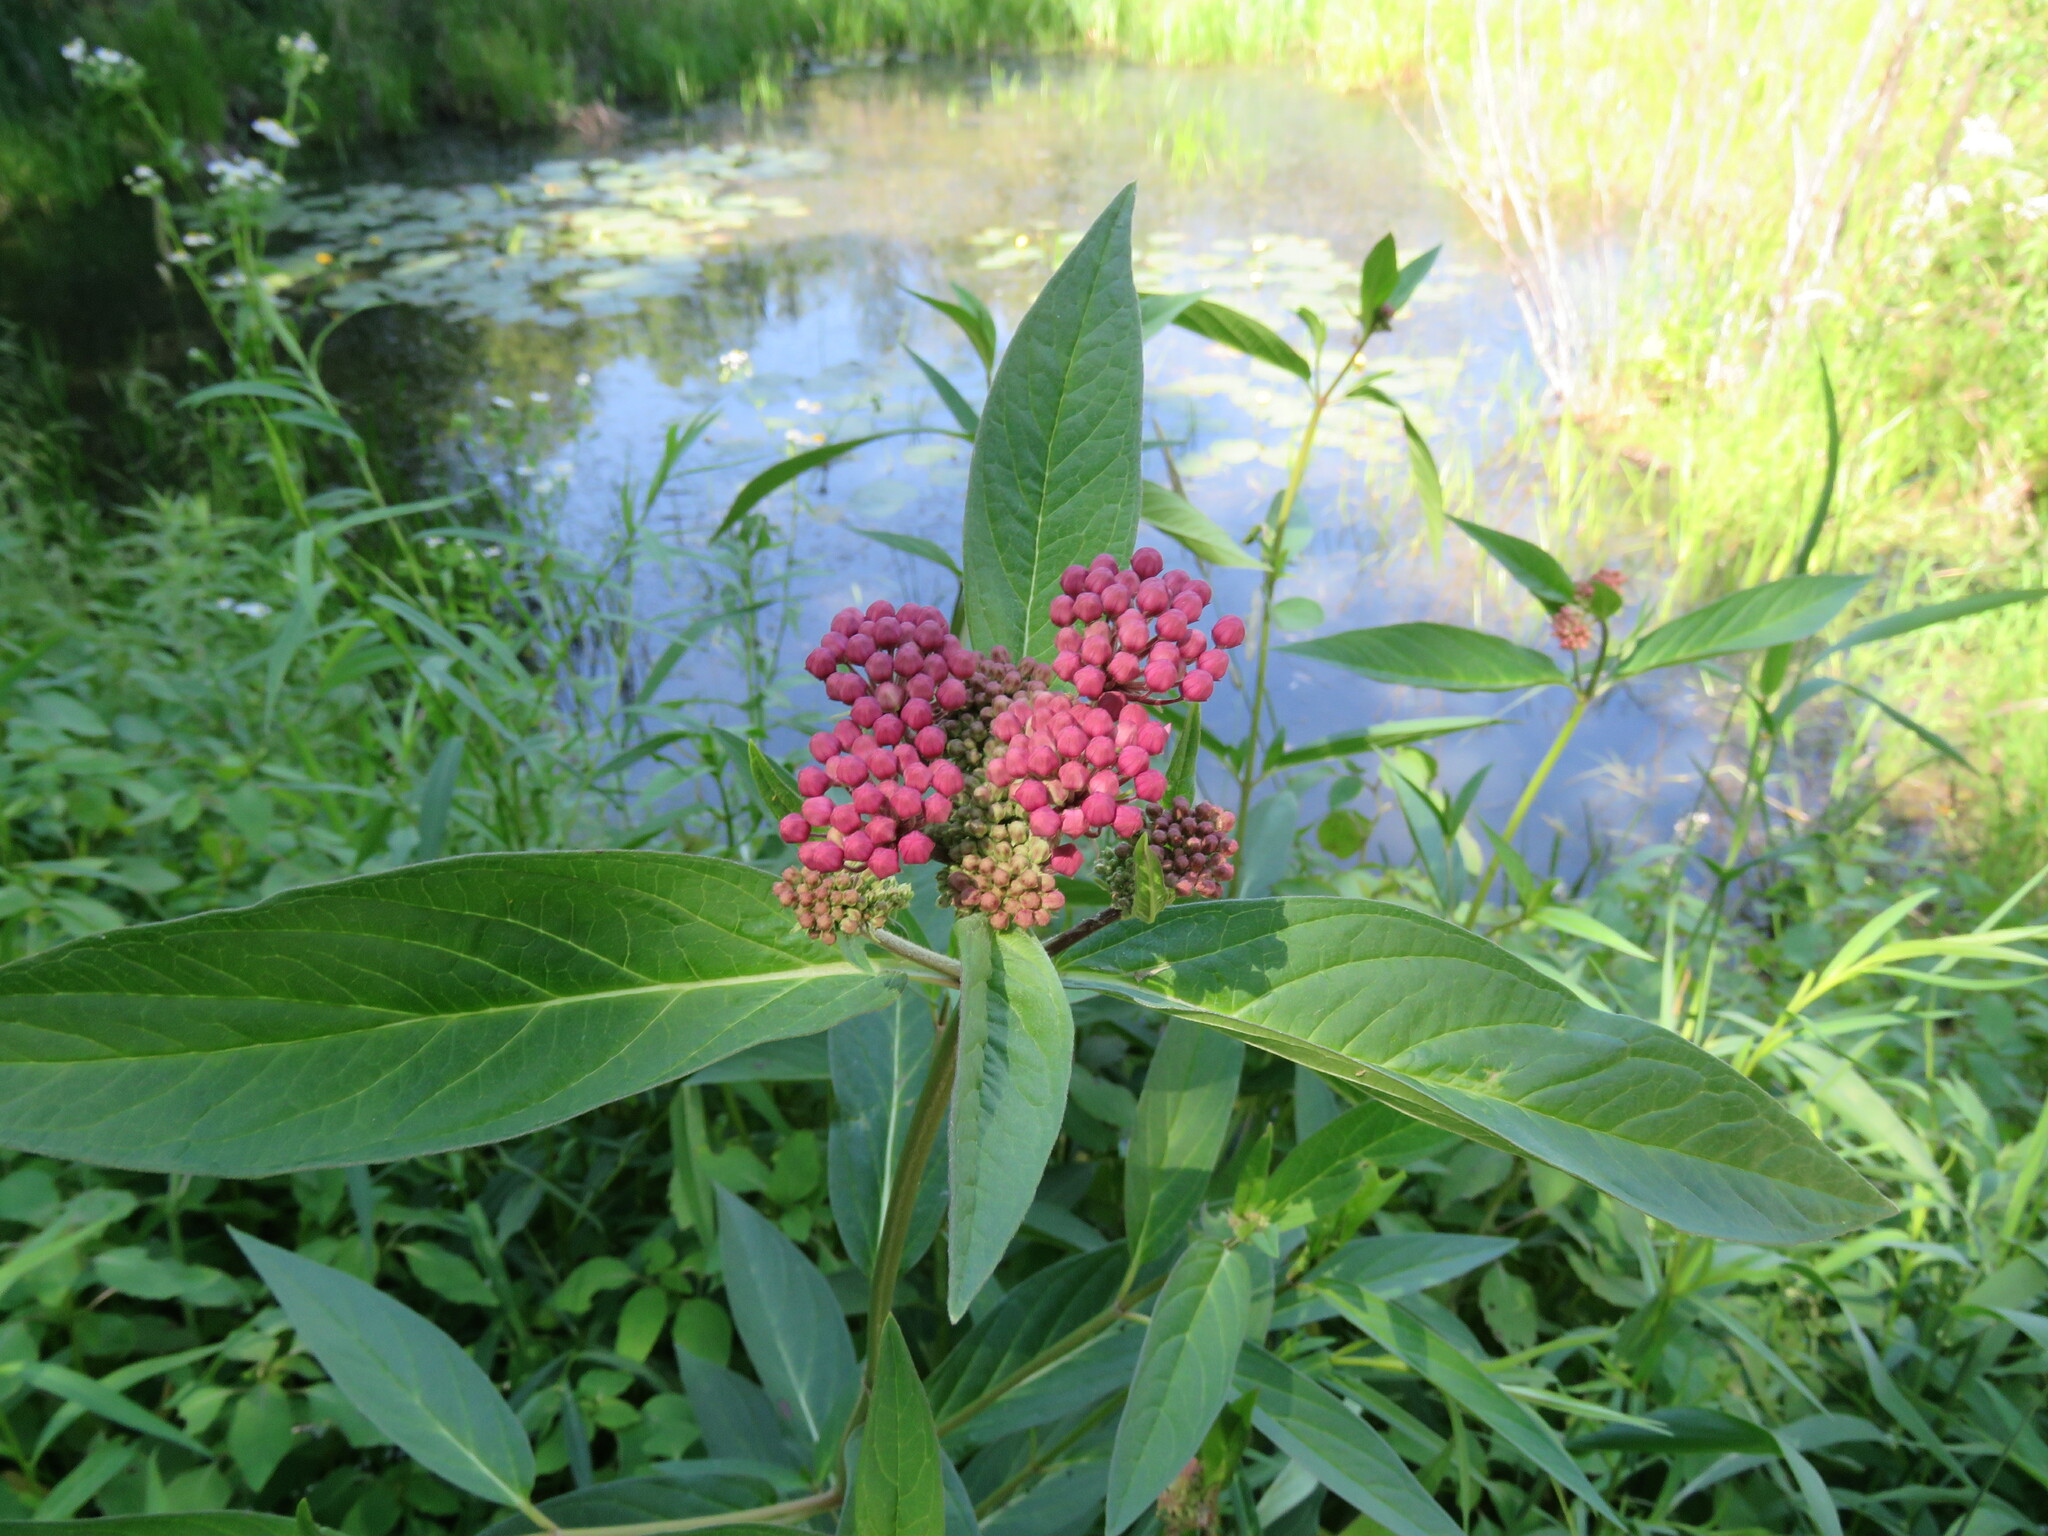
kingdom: Plantae
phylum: Tracheophyta
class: Magnoliopsida
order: Gentianales
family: Apocynaceae
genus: Asclepias
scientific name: Asclepias incarnata
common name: Swamp milkweed
